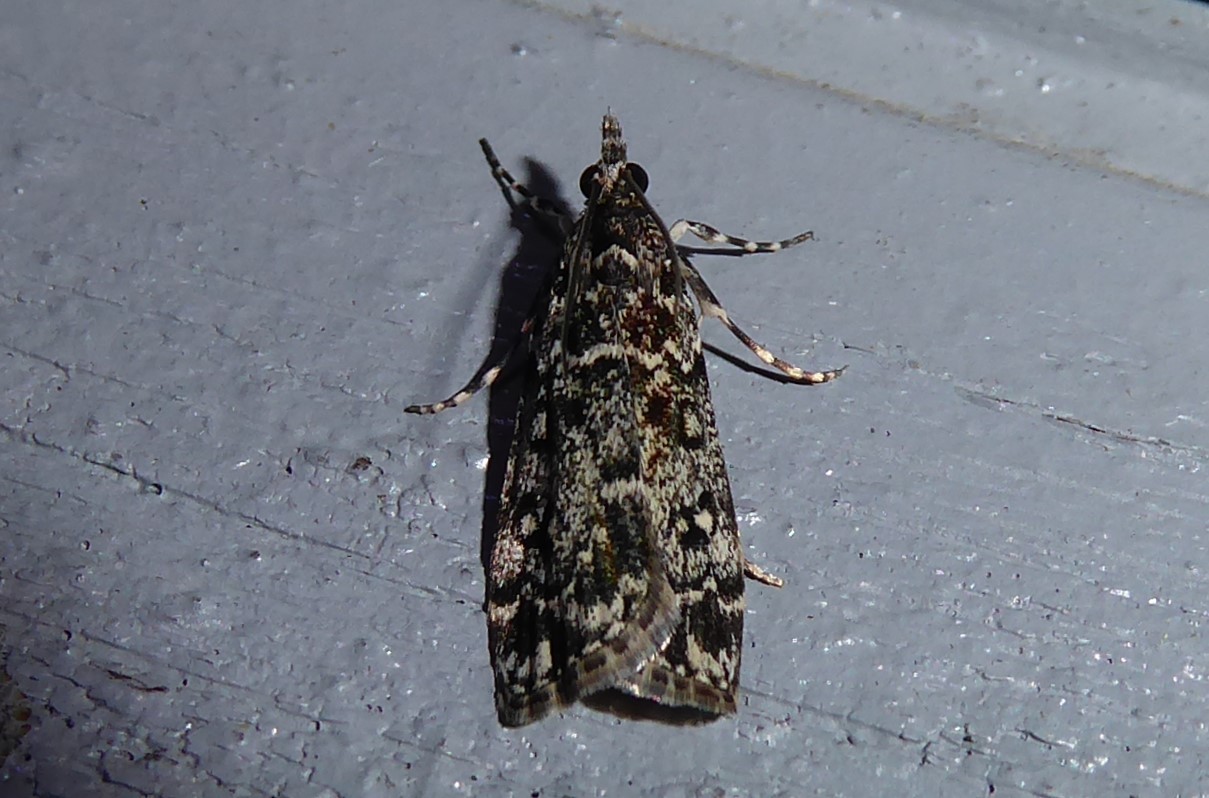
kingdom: Animalia
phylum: Arthropoda
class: Insecta
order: Lepidoptera
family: Crambidae
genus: Eudonia
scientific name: Eudonia philerga
